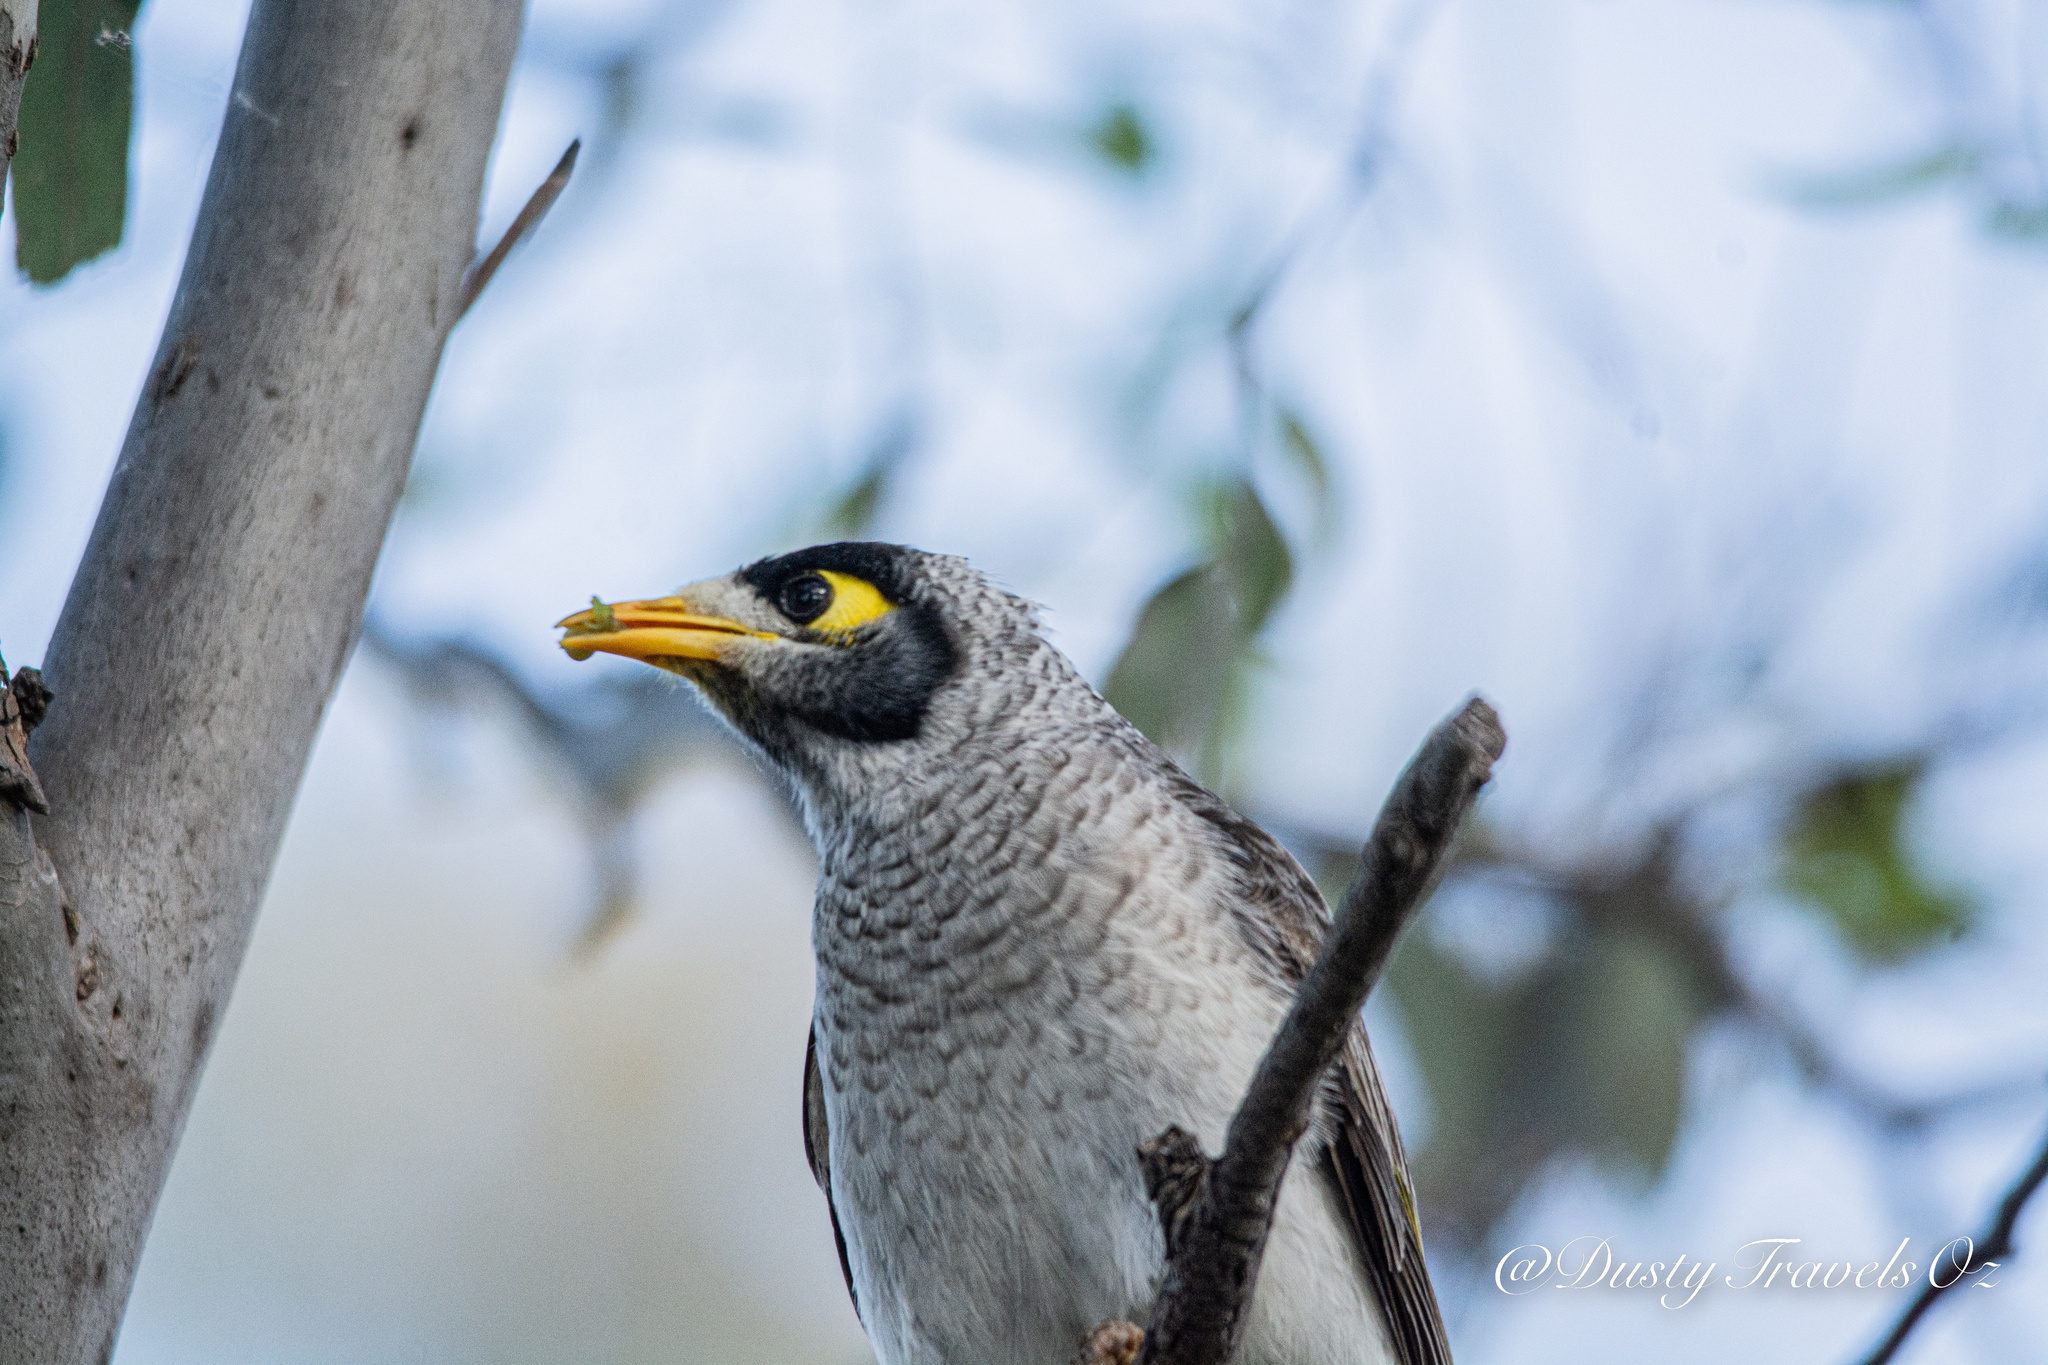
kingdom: Animalia
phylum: Chordata
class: Aves
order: Passeriformes
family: Meliphagidae
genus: Manorina
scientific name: Manorina melanocephala
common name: Noisy miner
